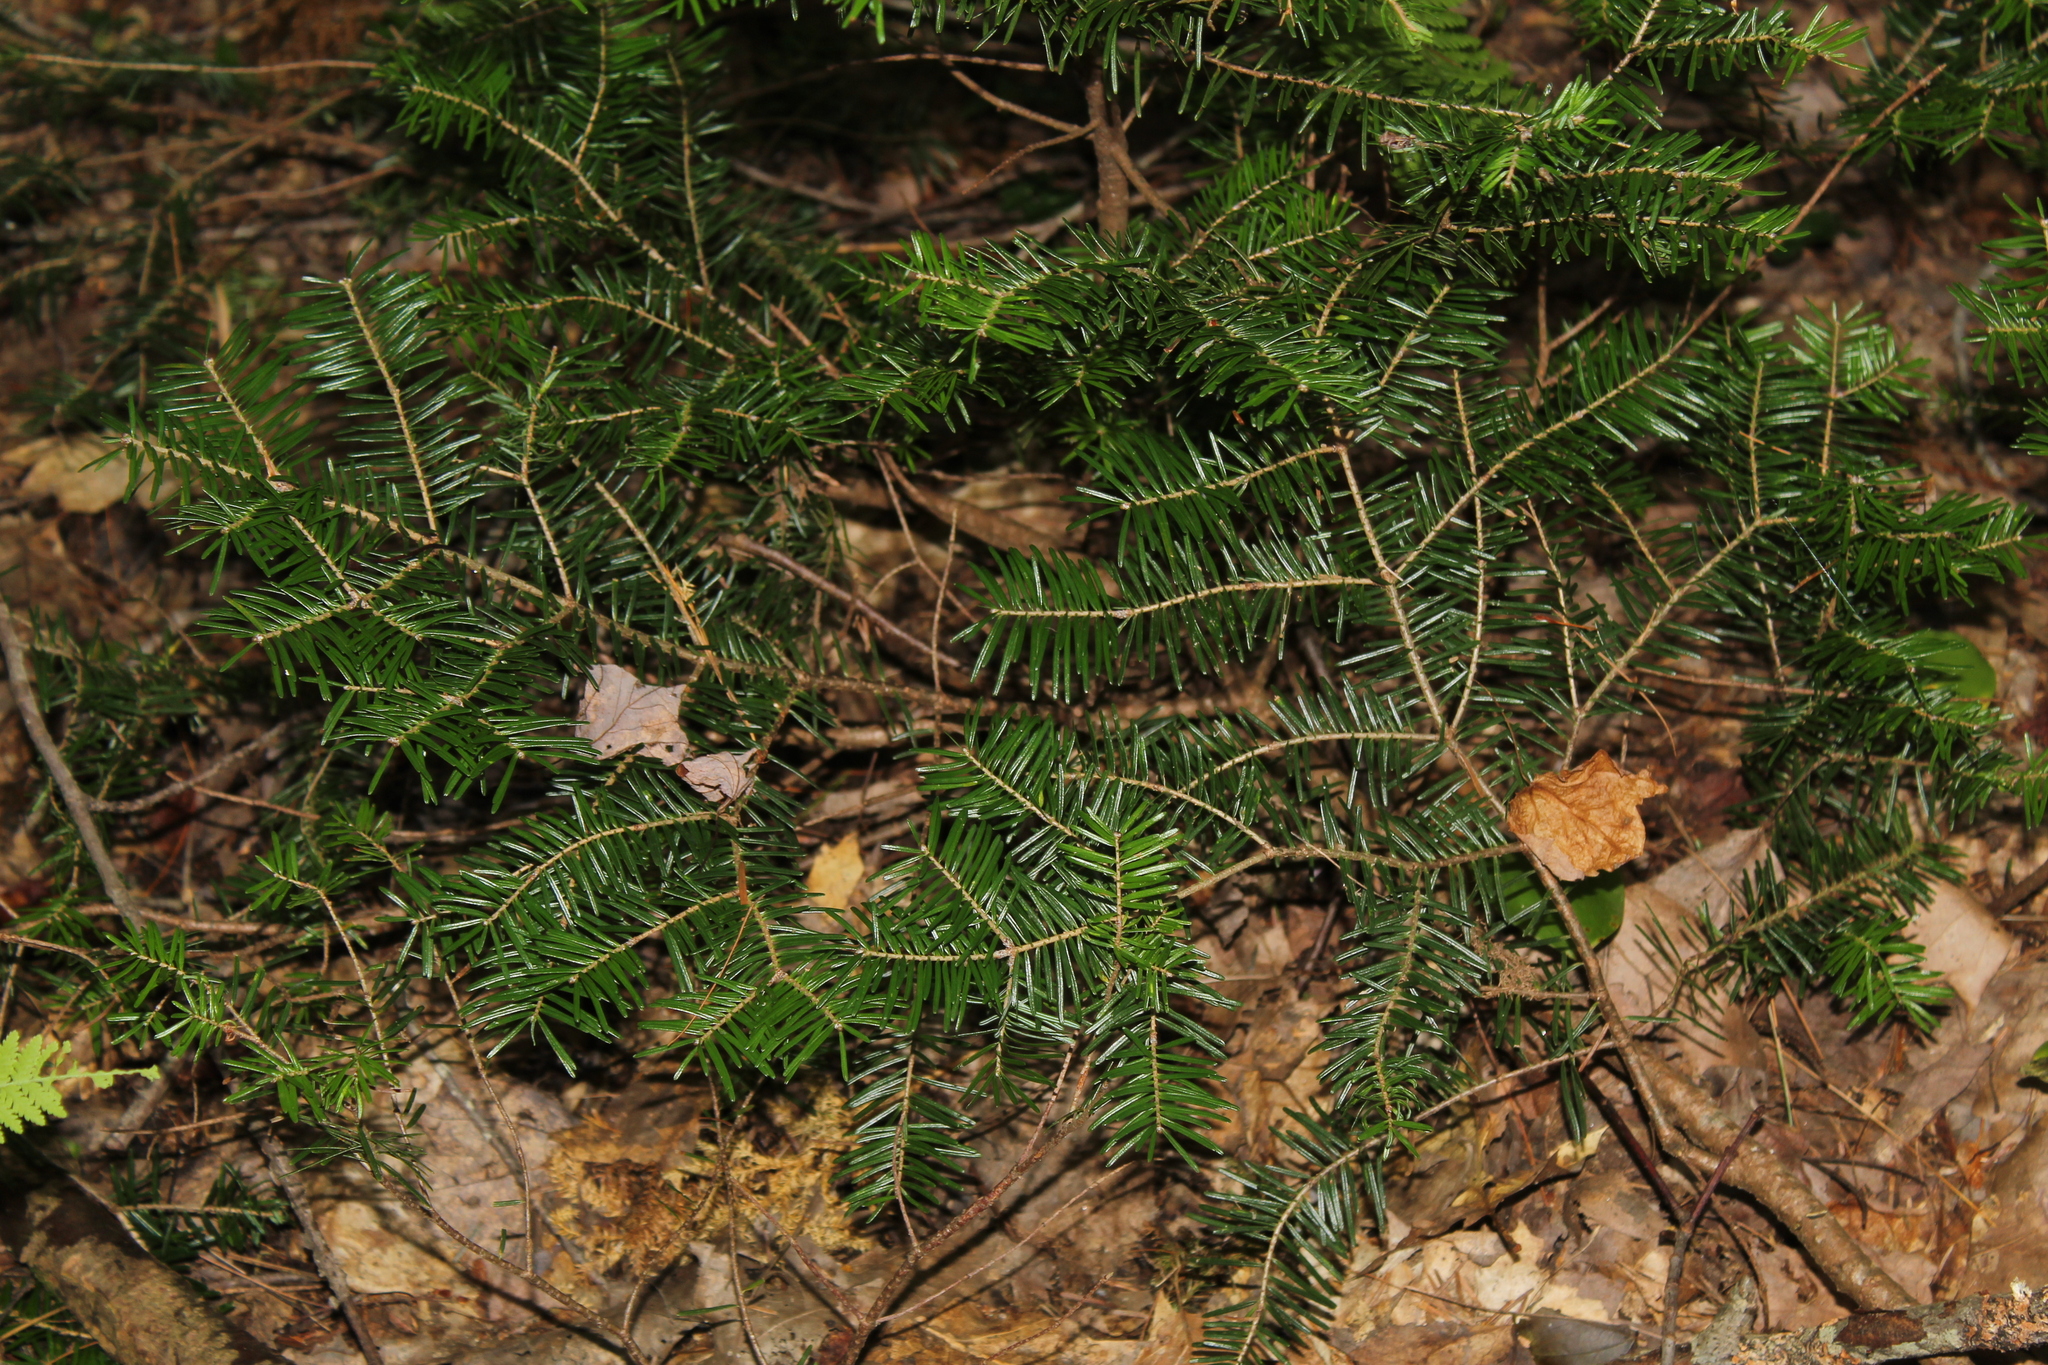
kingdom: Plantae
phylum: Tracheophyta
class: Pinopsida
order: Pinales
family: Pinaceae
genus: Abies
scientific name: Abies balsamea
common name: Balsam fir
